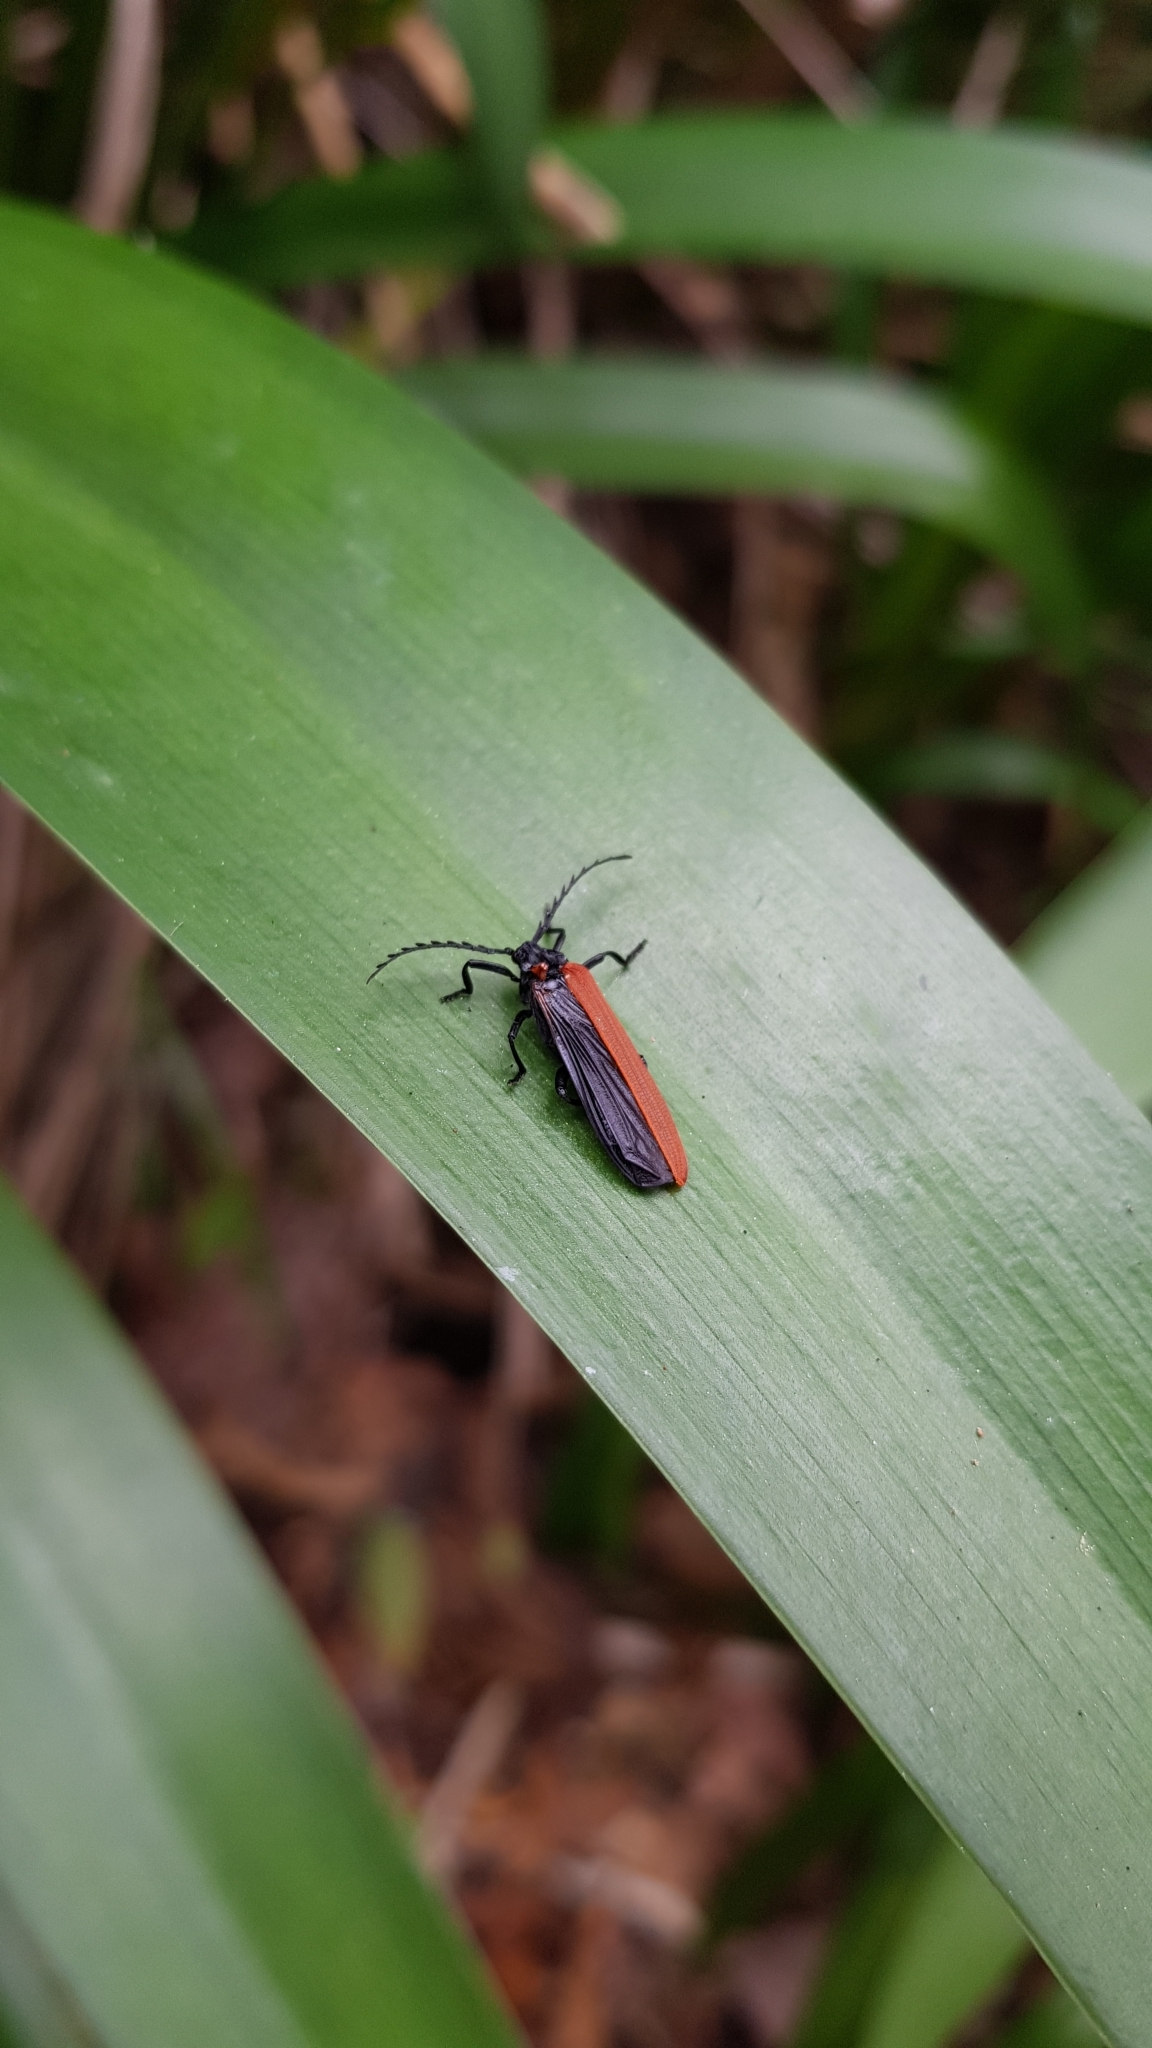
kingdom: Animalia
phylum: Arthropoda
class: Insecta
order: Coleoptera
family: Lycidae
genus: Porrostoma
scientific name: Porrostoma rhipidium
